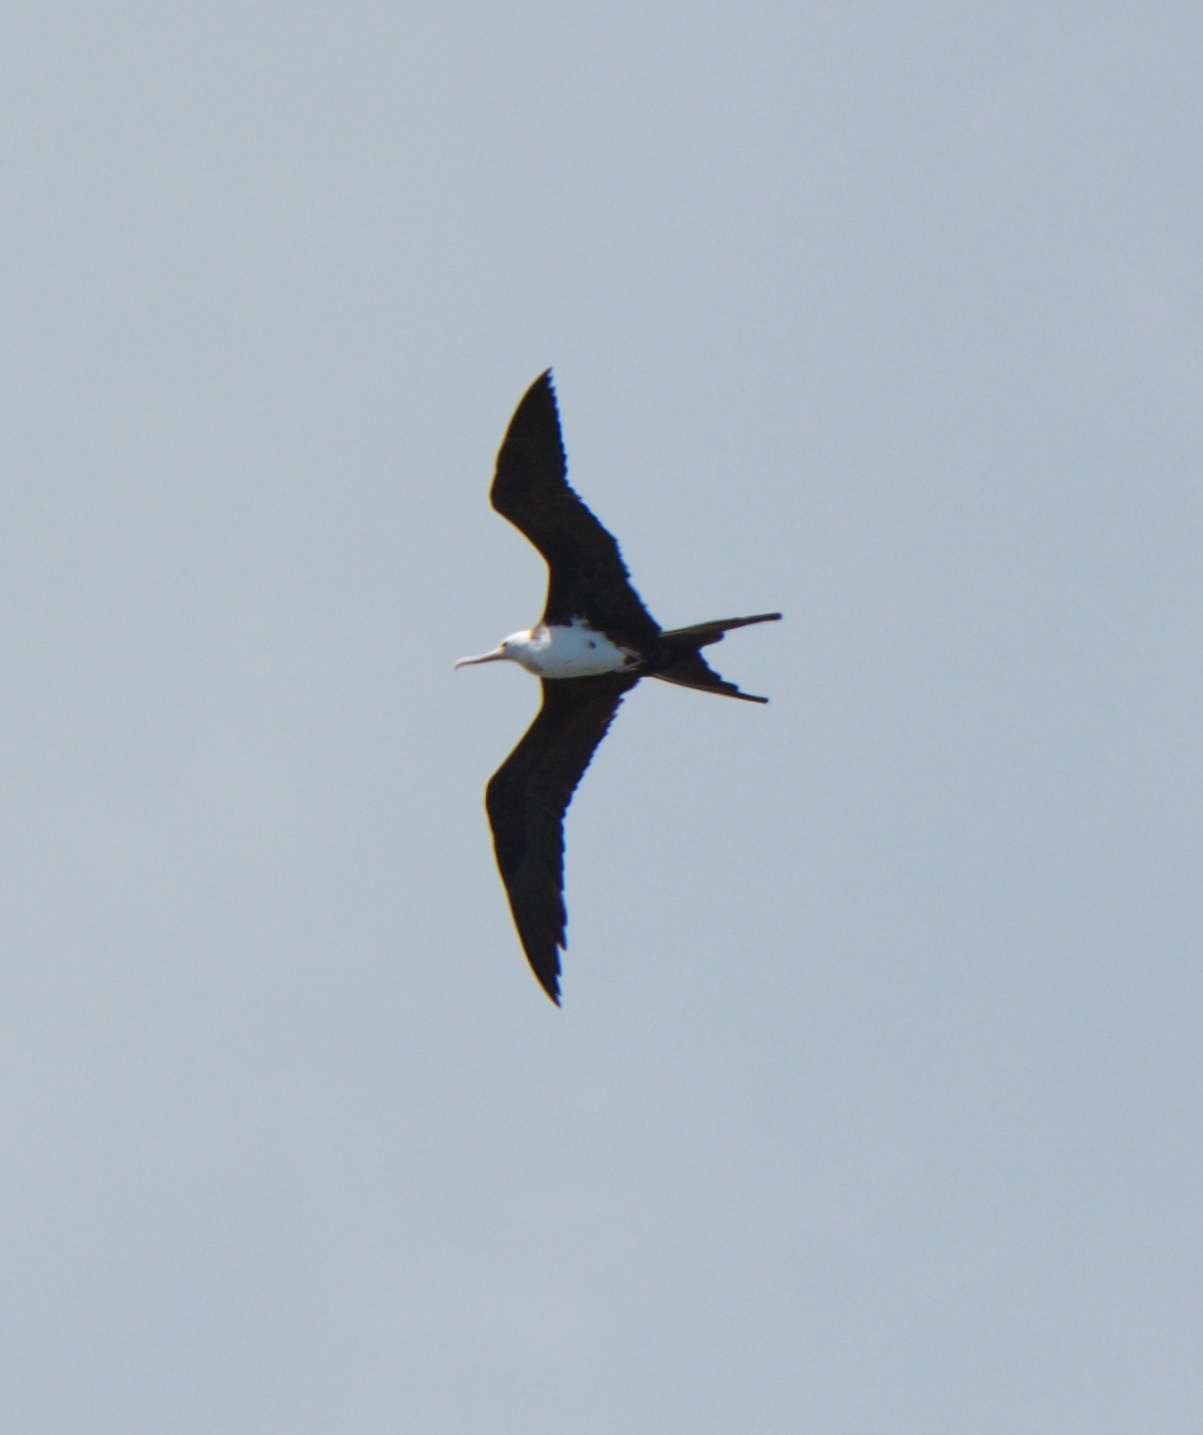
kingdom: Animalia
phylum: Chordata
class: Aves
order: Suliformes
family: Fregatidae
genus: Fregata
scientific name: Fregata minor
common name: Great frigatebird
